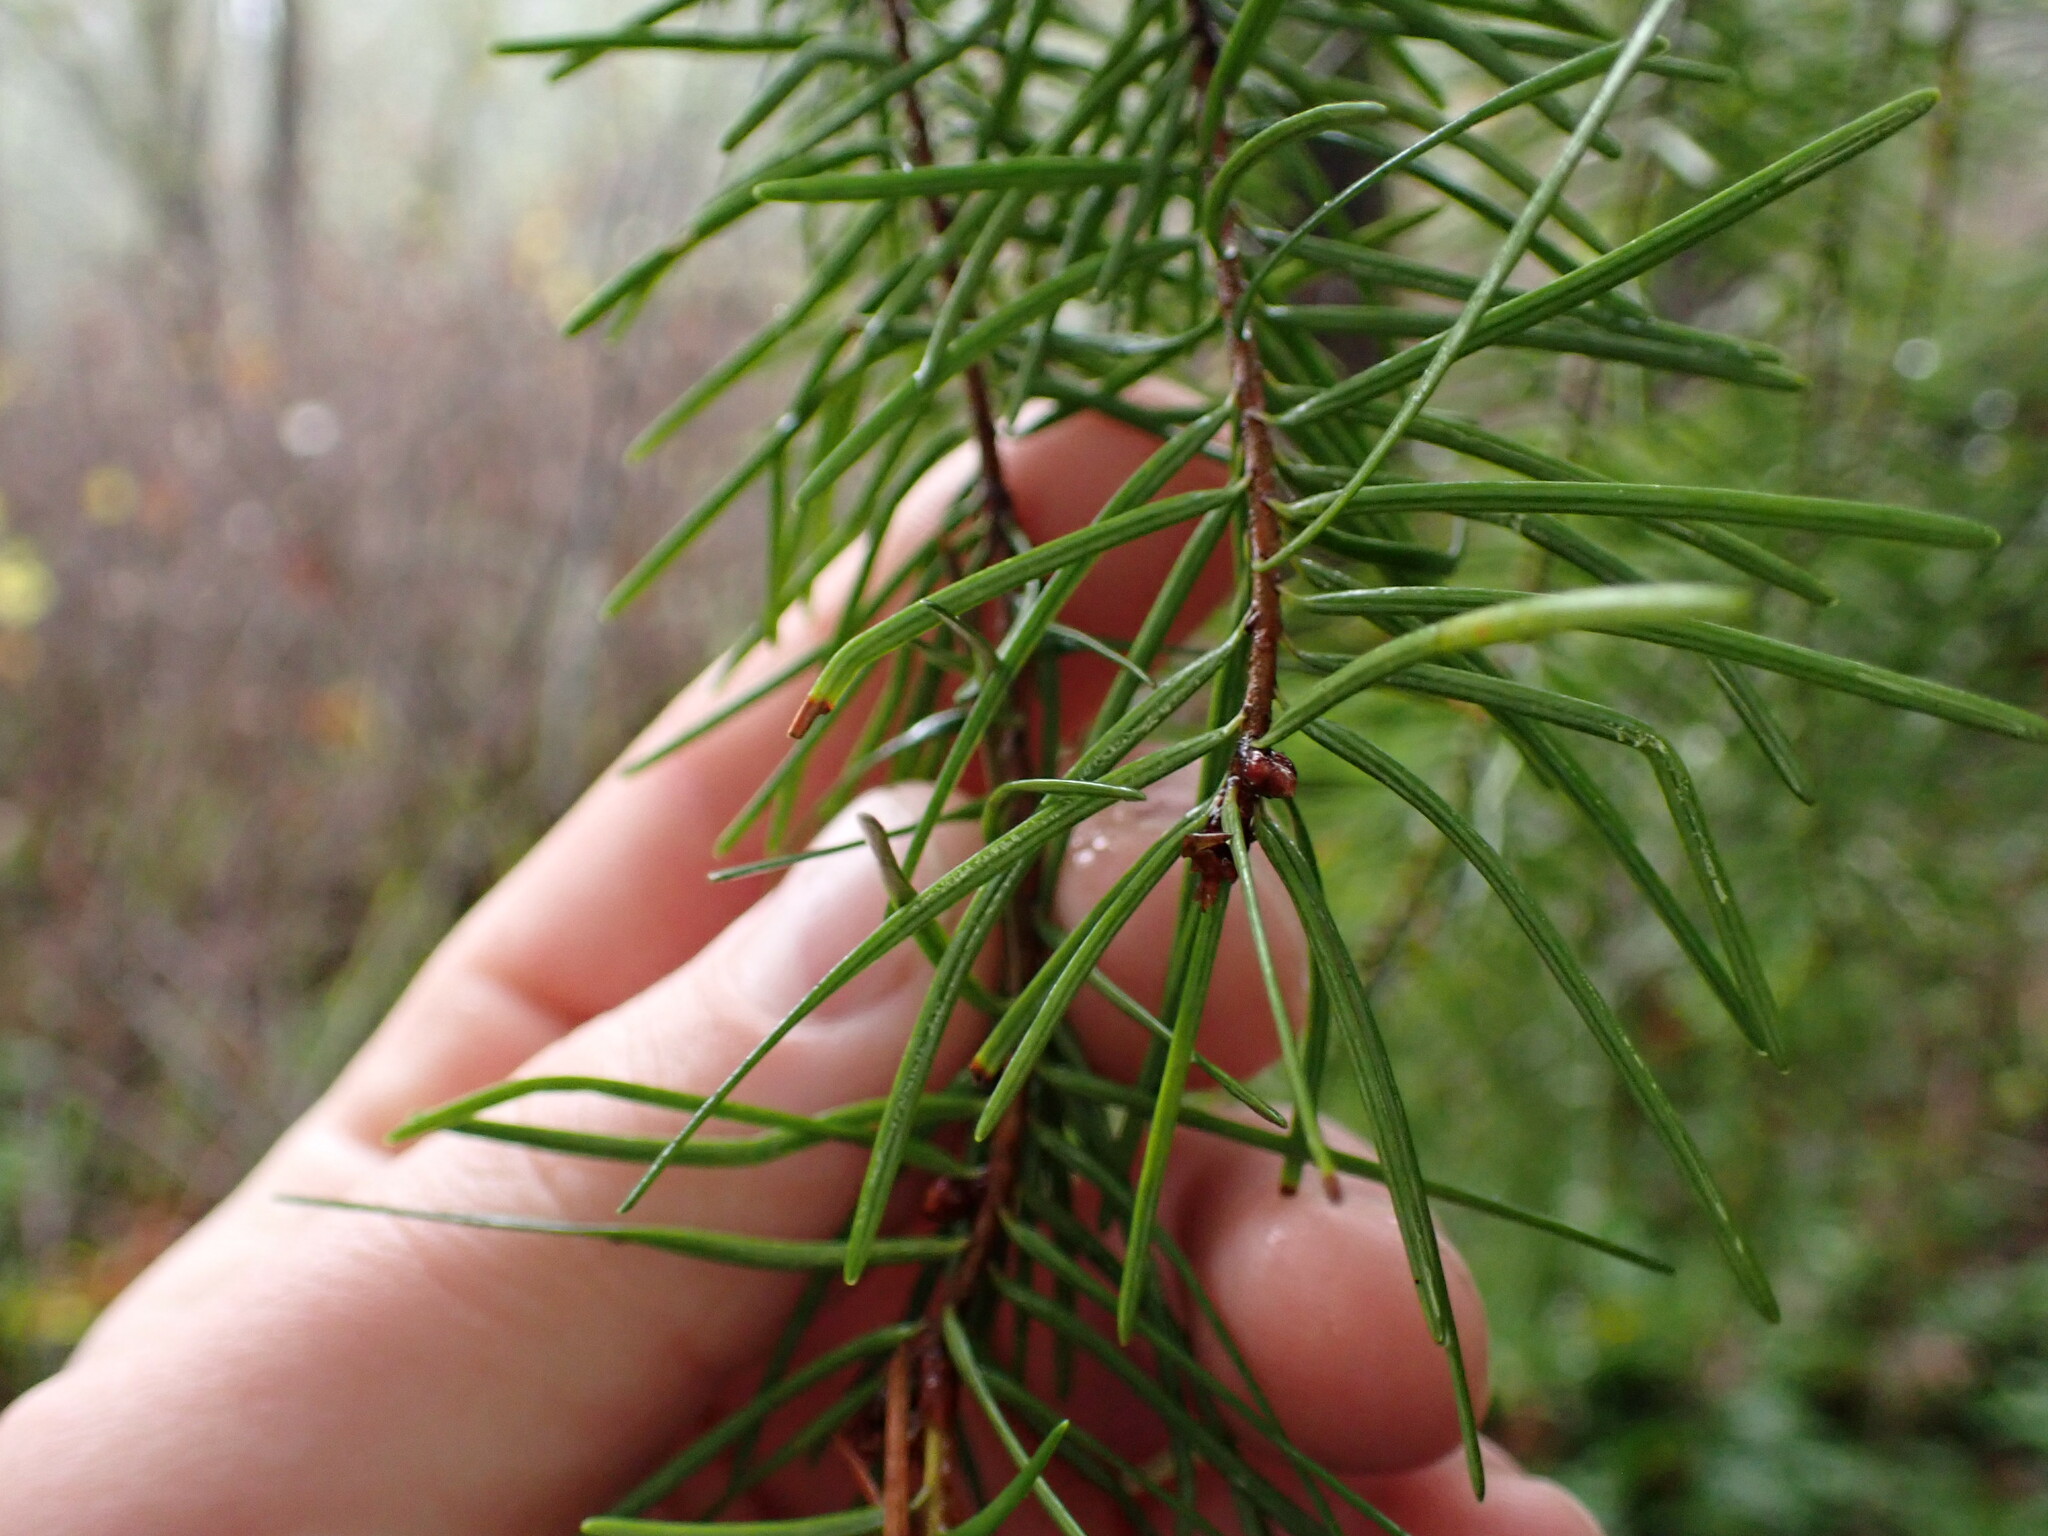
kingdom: Plantae
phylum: Tracheophyta
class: Pinopsida
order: Pinales
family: Pinaceae
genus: Pseudotsuga
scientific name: Pseudotsuga menziesii
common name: Douglas fir
